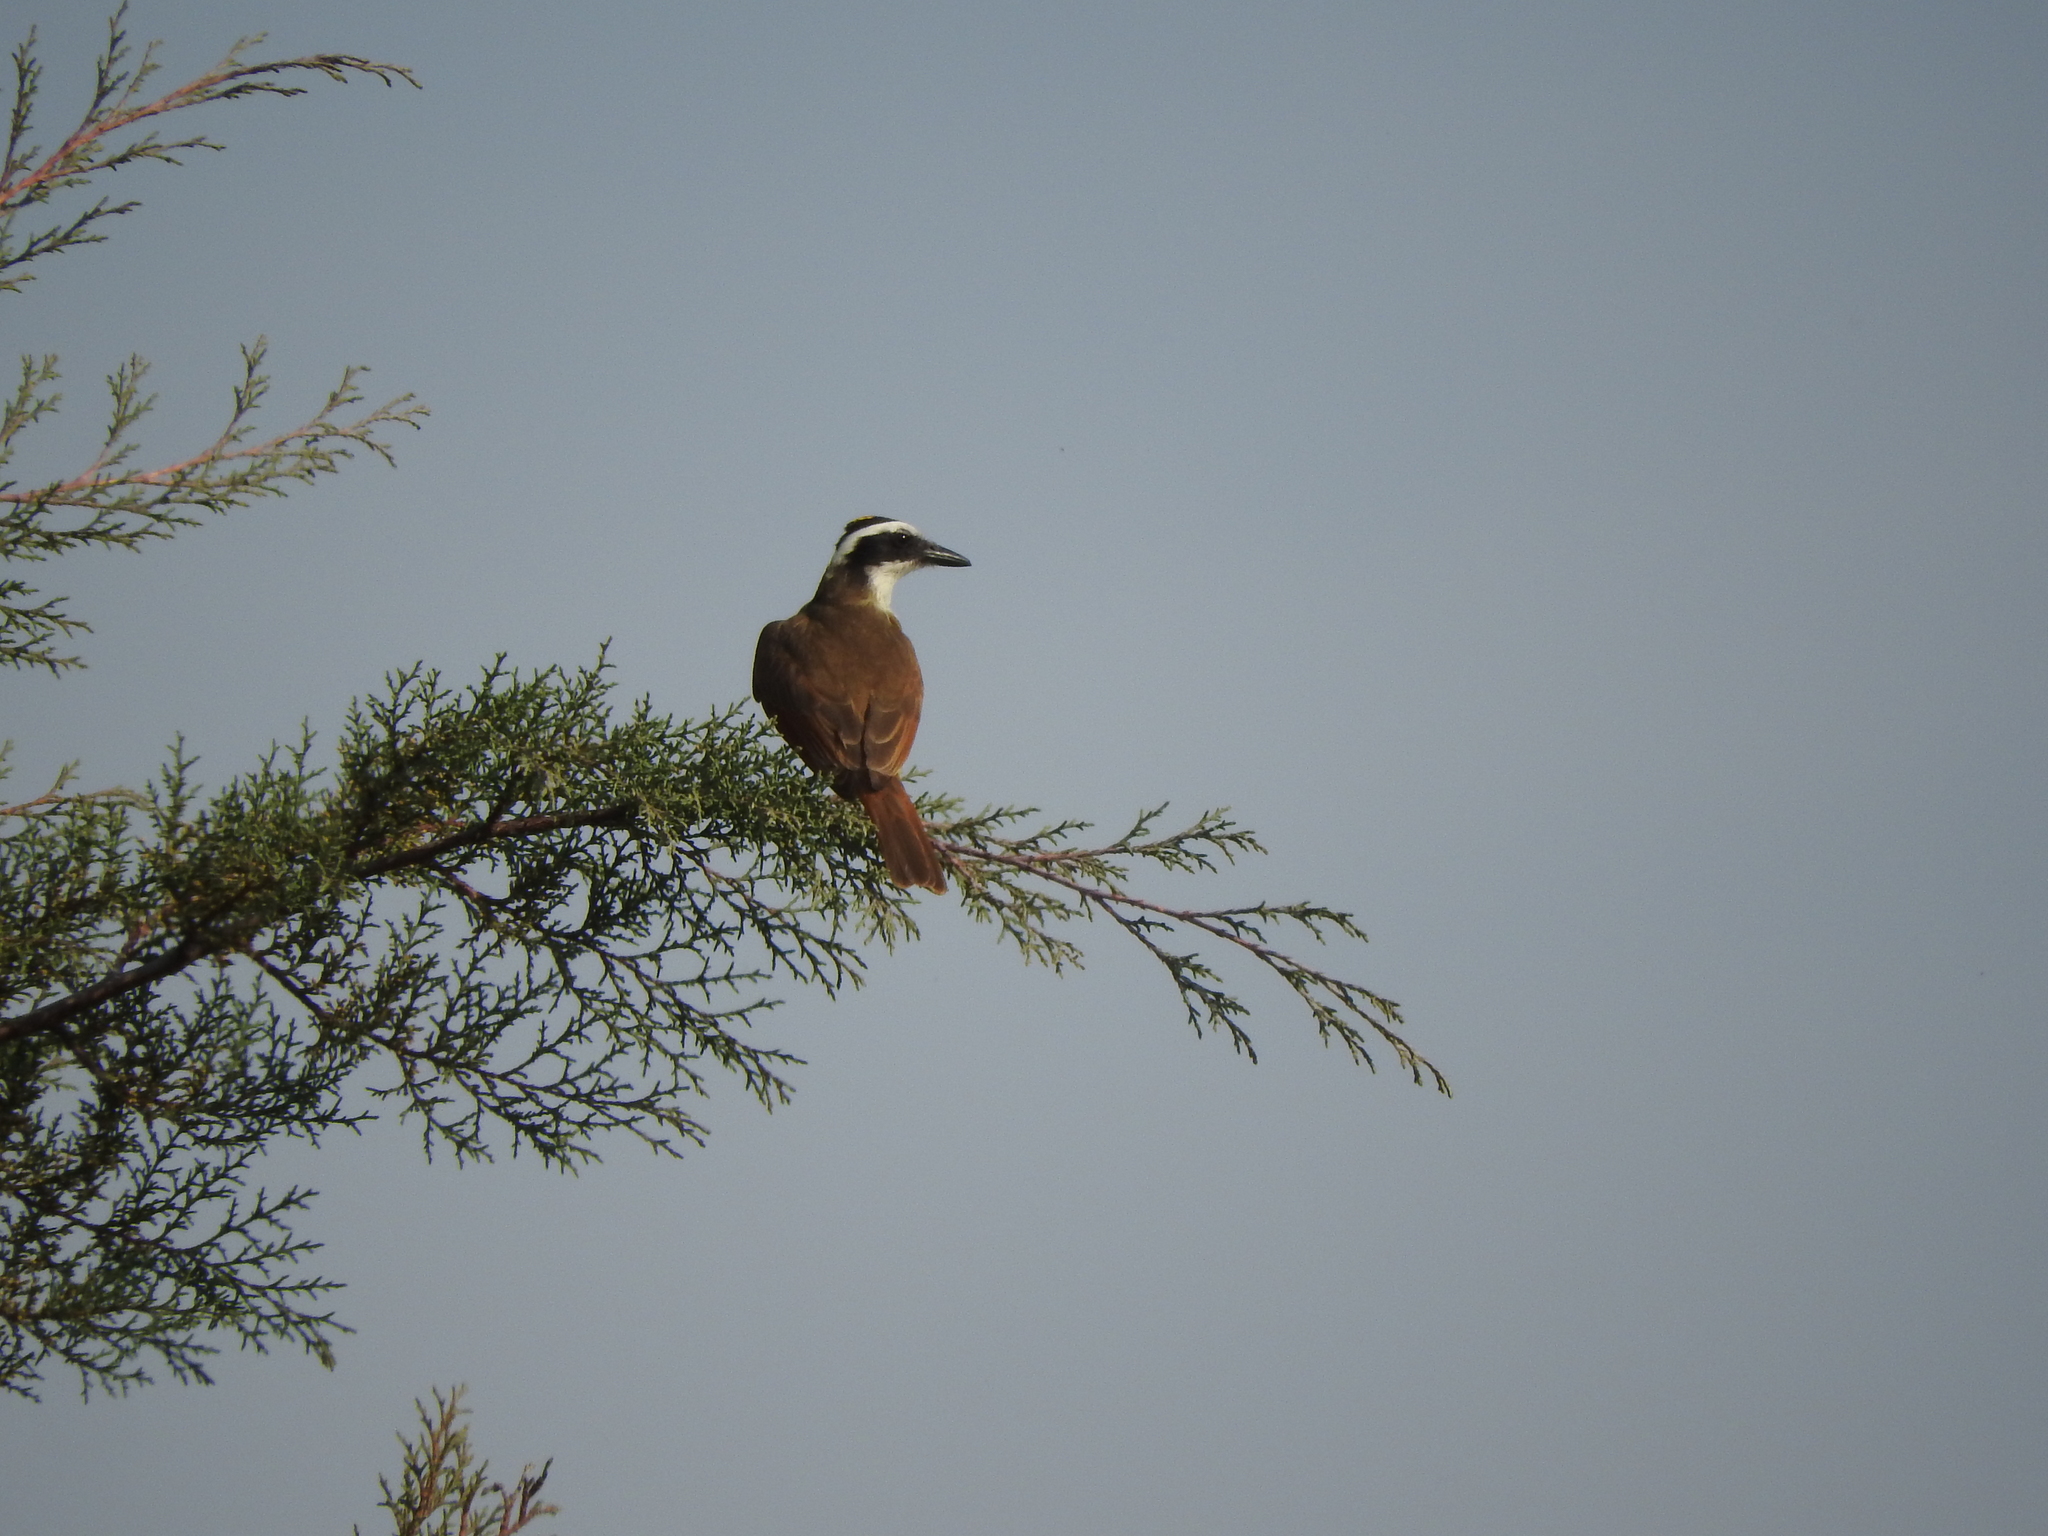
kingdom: Animalia
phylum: Chordata
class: Aves
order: Passeriformes
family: Tyrannidae
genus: Pitangus
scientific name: Pitangus sulphuratus
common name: Great kiskadee
